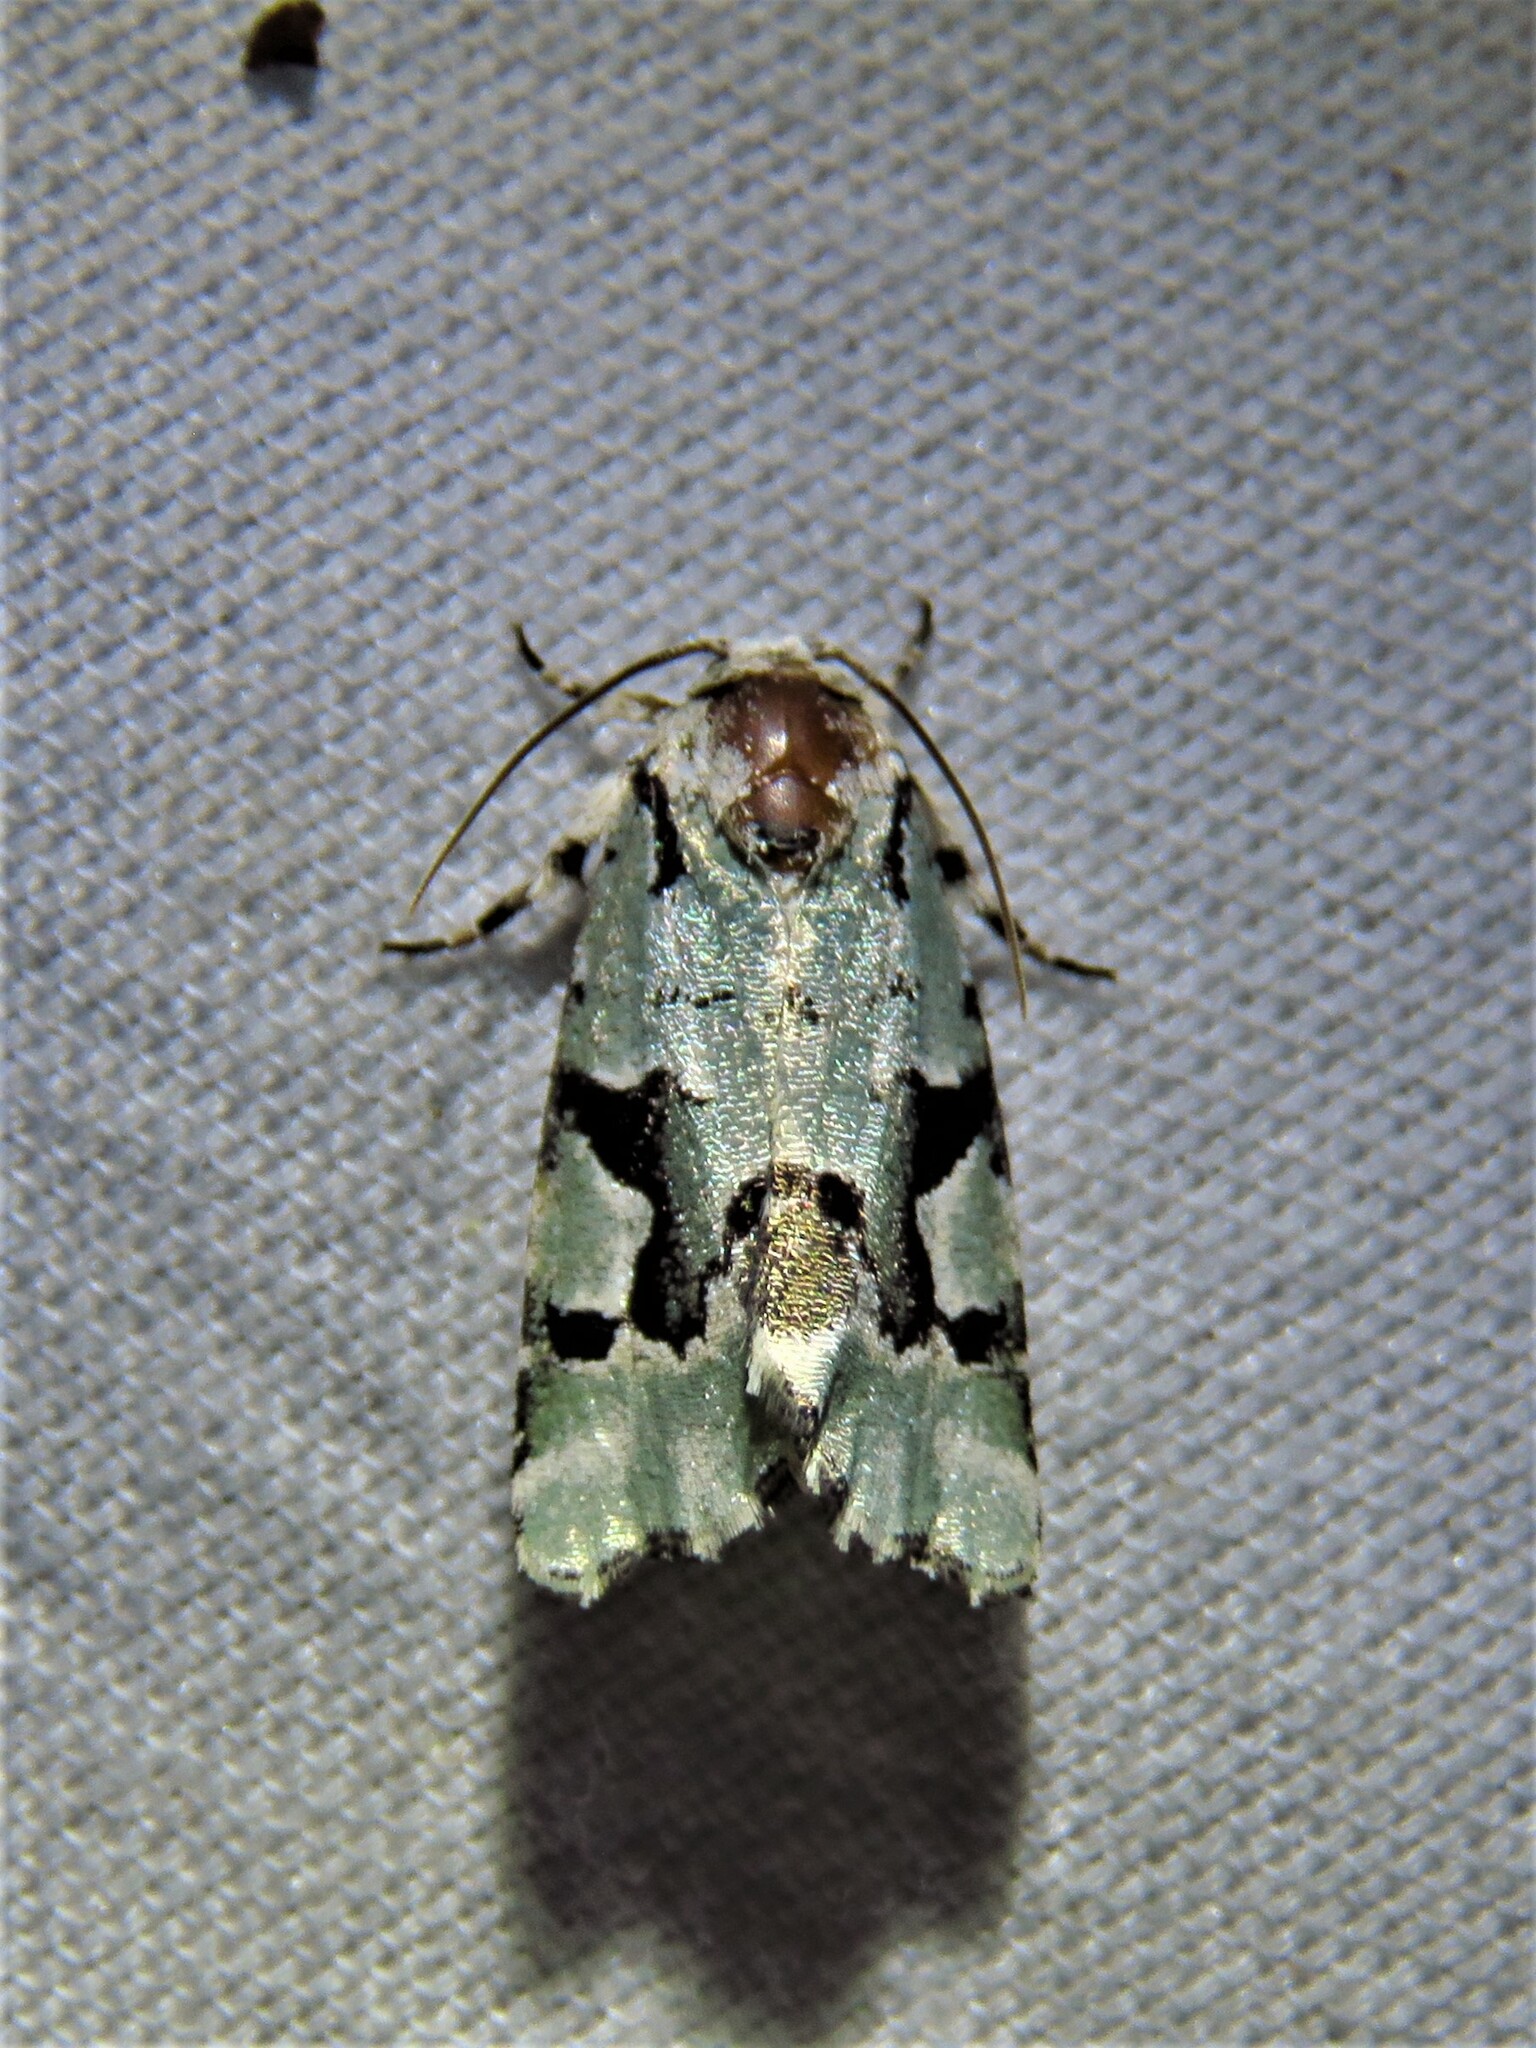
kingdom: Animalia
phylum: Arthropoda
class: Insecta
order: Lepidoptera
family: Noctuidae
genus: Emarginea
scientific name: Emarginea percara
